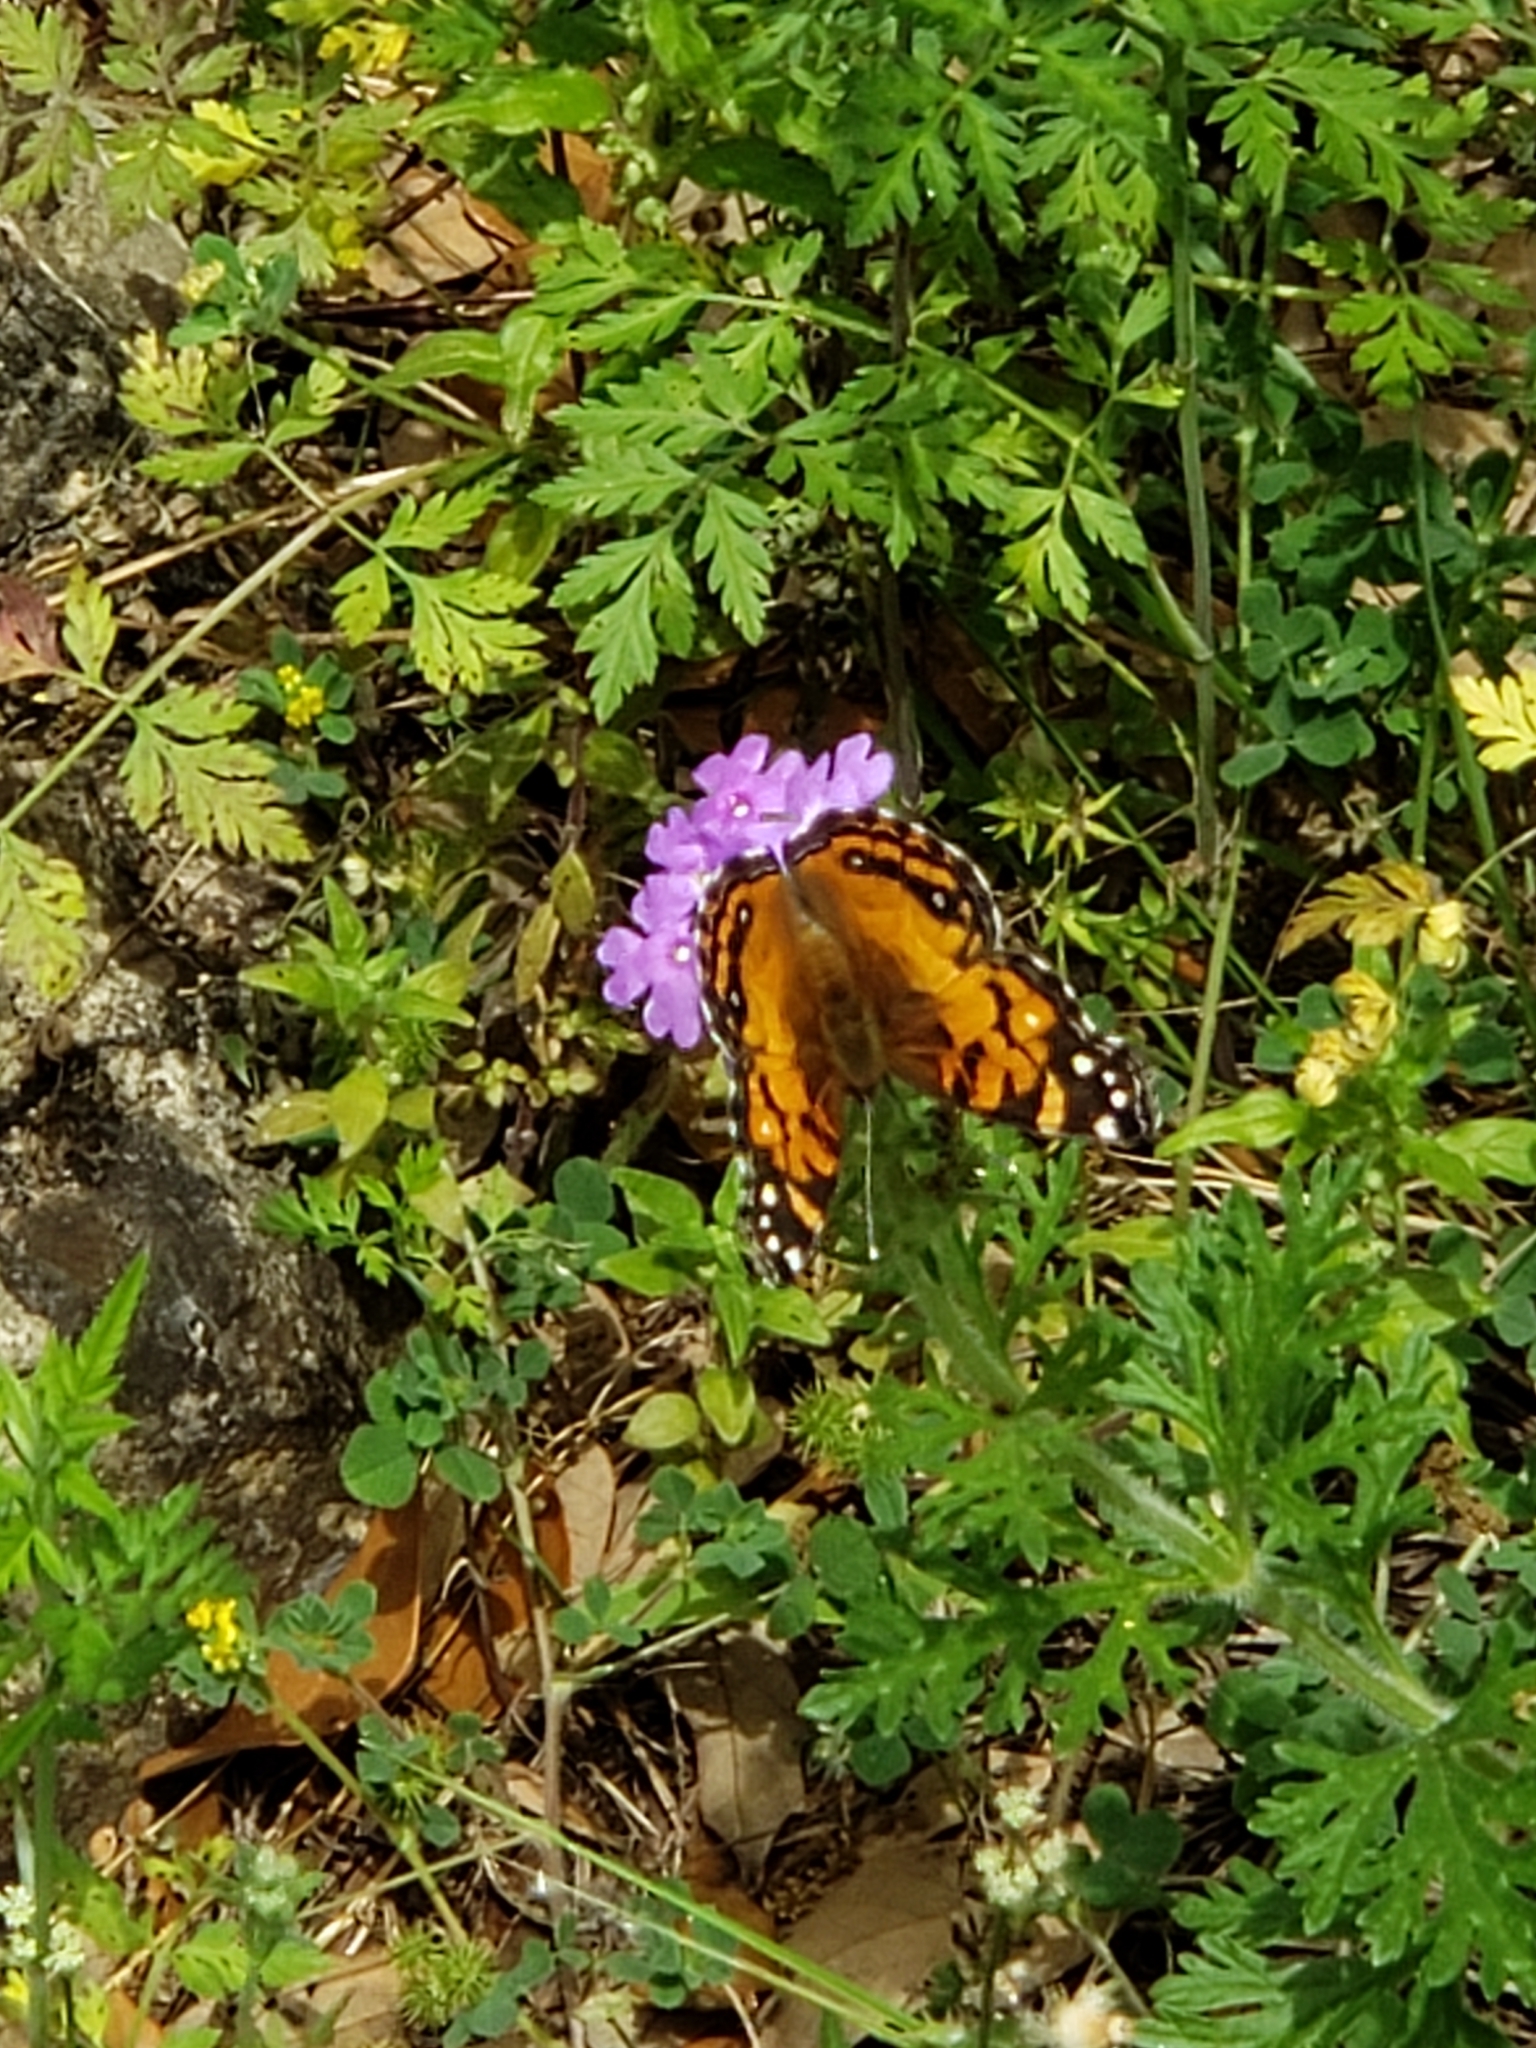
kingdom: Animalia
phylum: Arthropoda
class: Insecta
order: Lepidoptera
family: Nymphalidae
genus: Vanessa
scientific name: Vanessa virginiensis
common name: American lady
